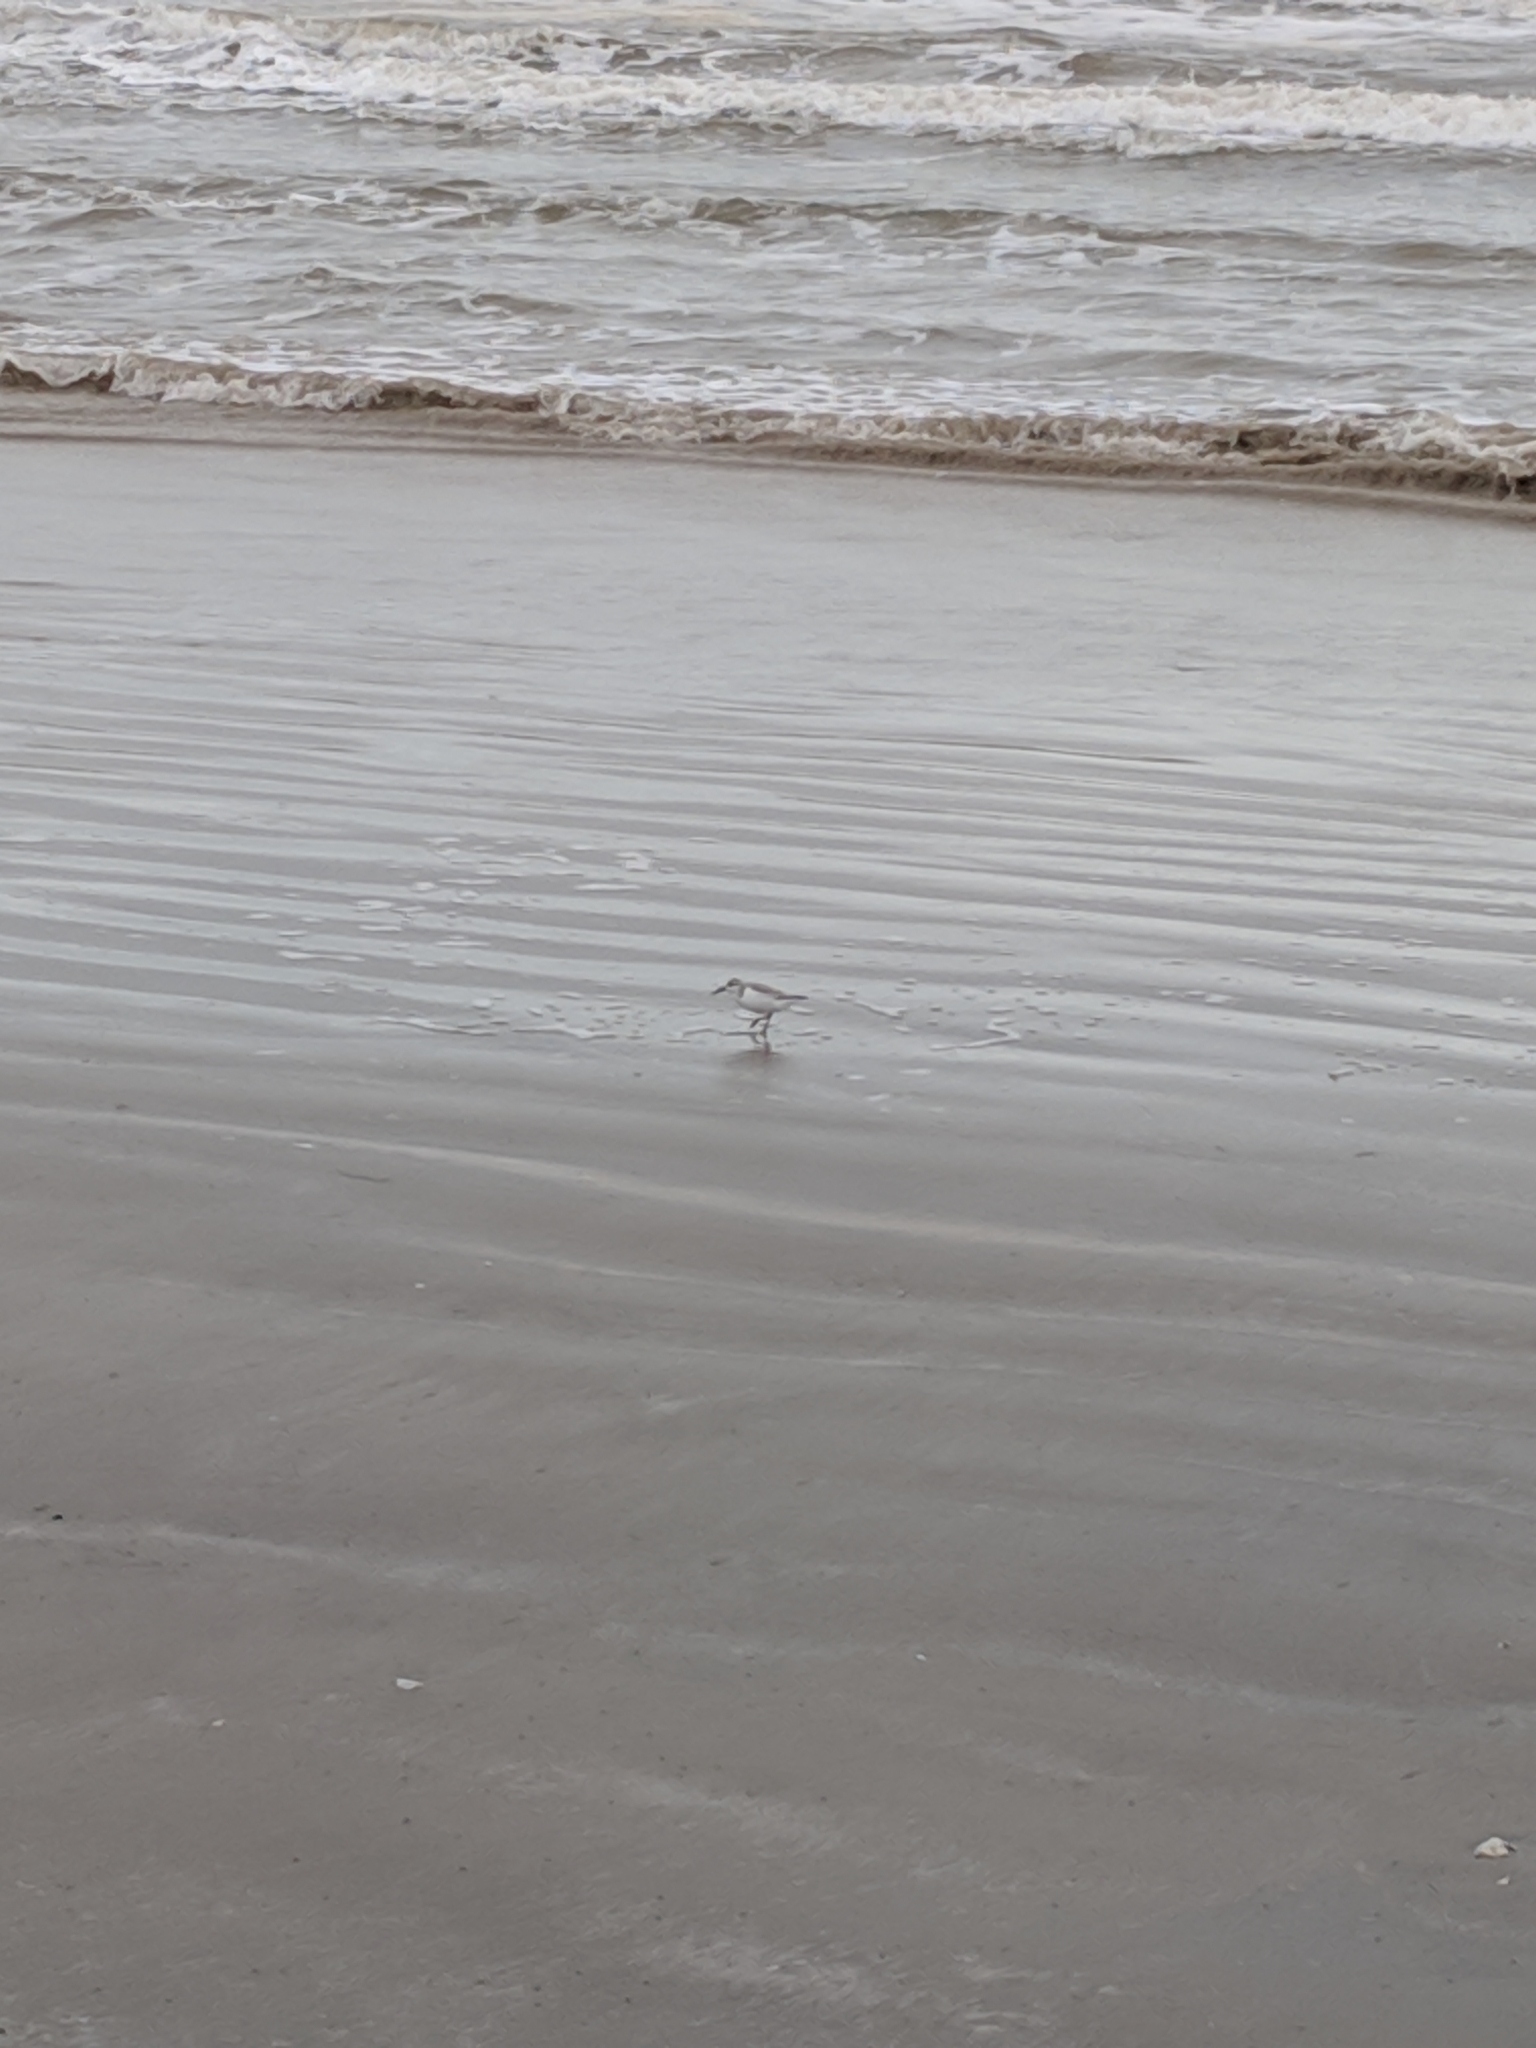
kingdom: Animalia
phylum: Chordata
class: Aves
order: Charadriiformes
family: Scolopacidae
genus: Calidris
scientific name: Calidris alba
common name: Sanderling
